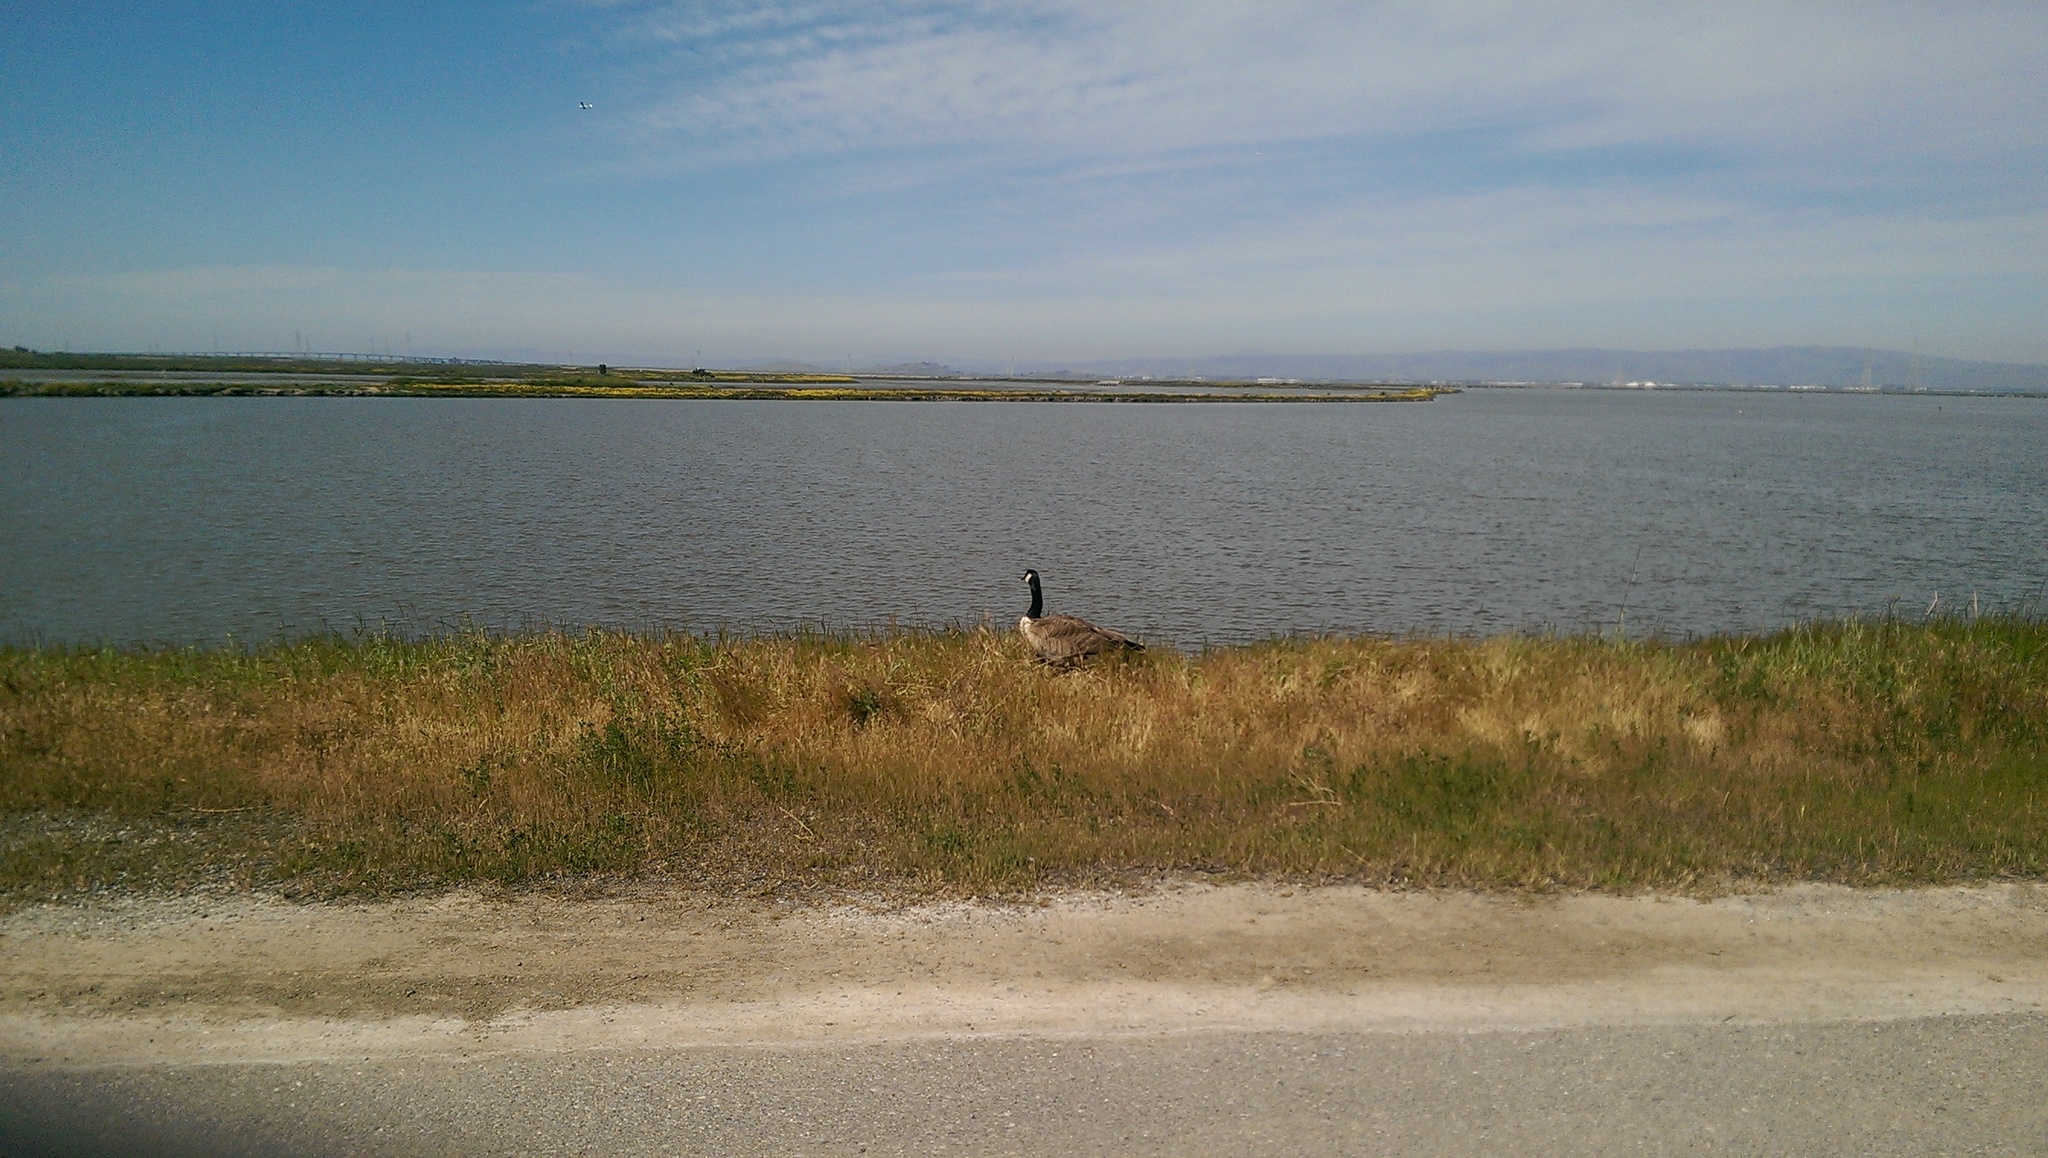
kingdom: Animalia
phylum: Chordata
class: Aves
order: Anseriformes
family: Anatidae
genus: Branta
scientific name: Branta canadensis
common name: Canada goose
